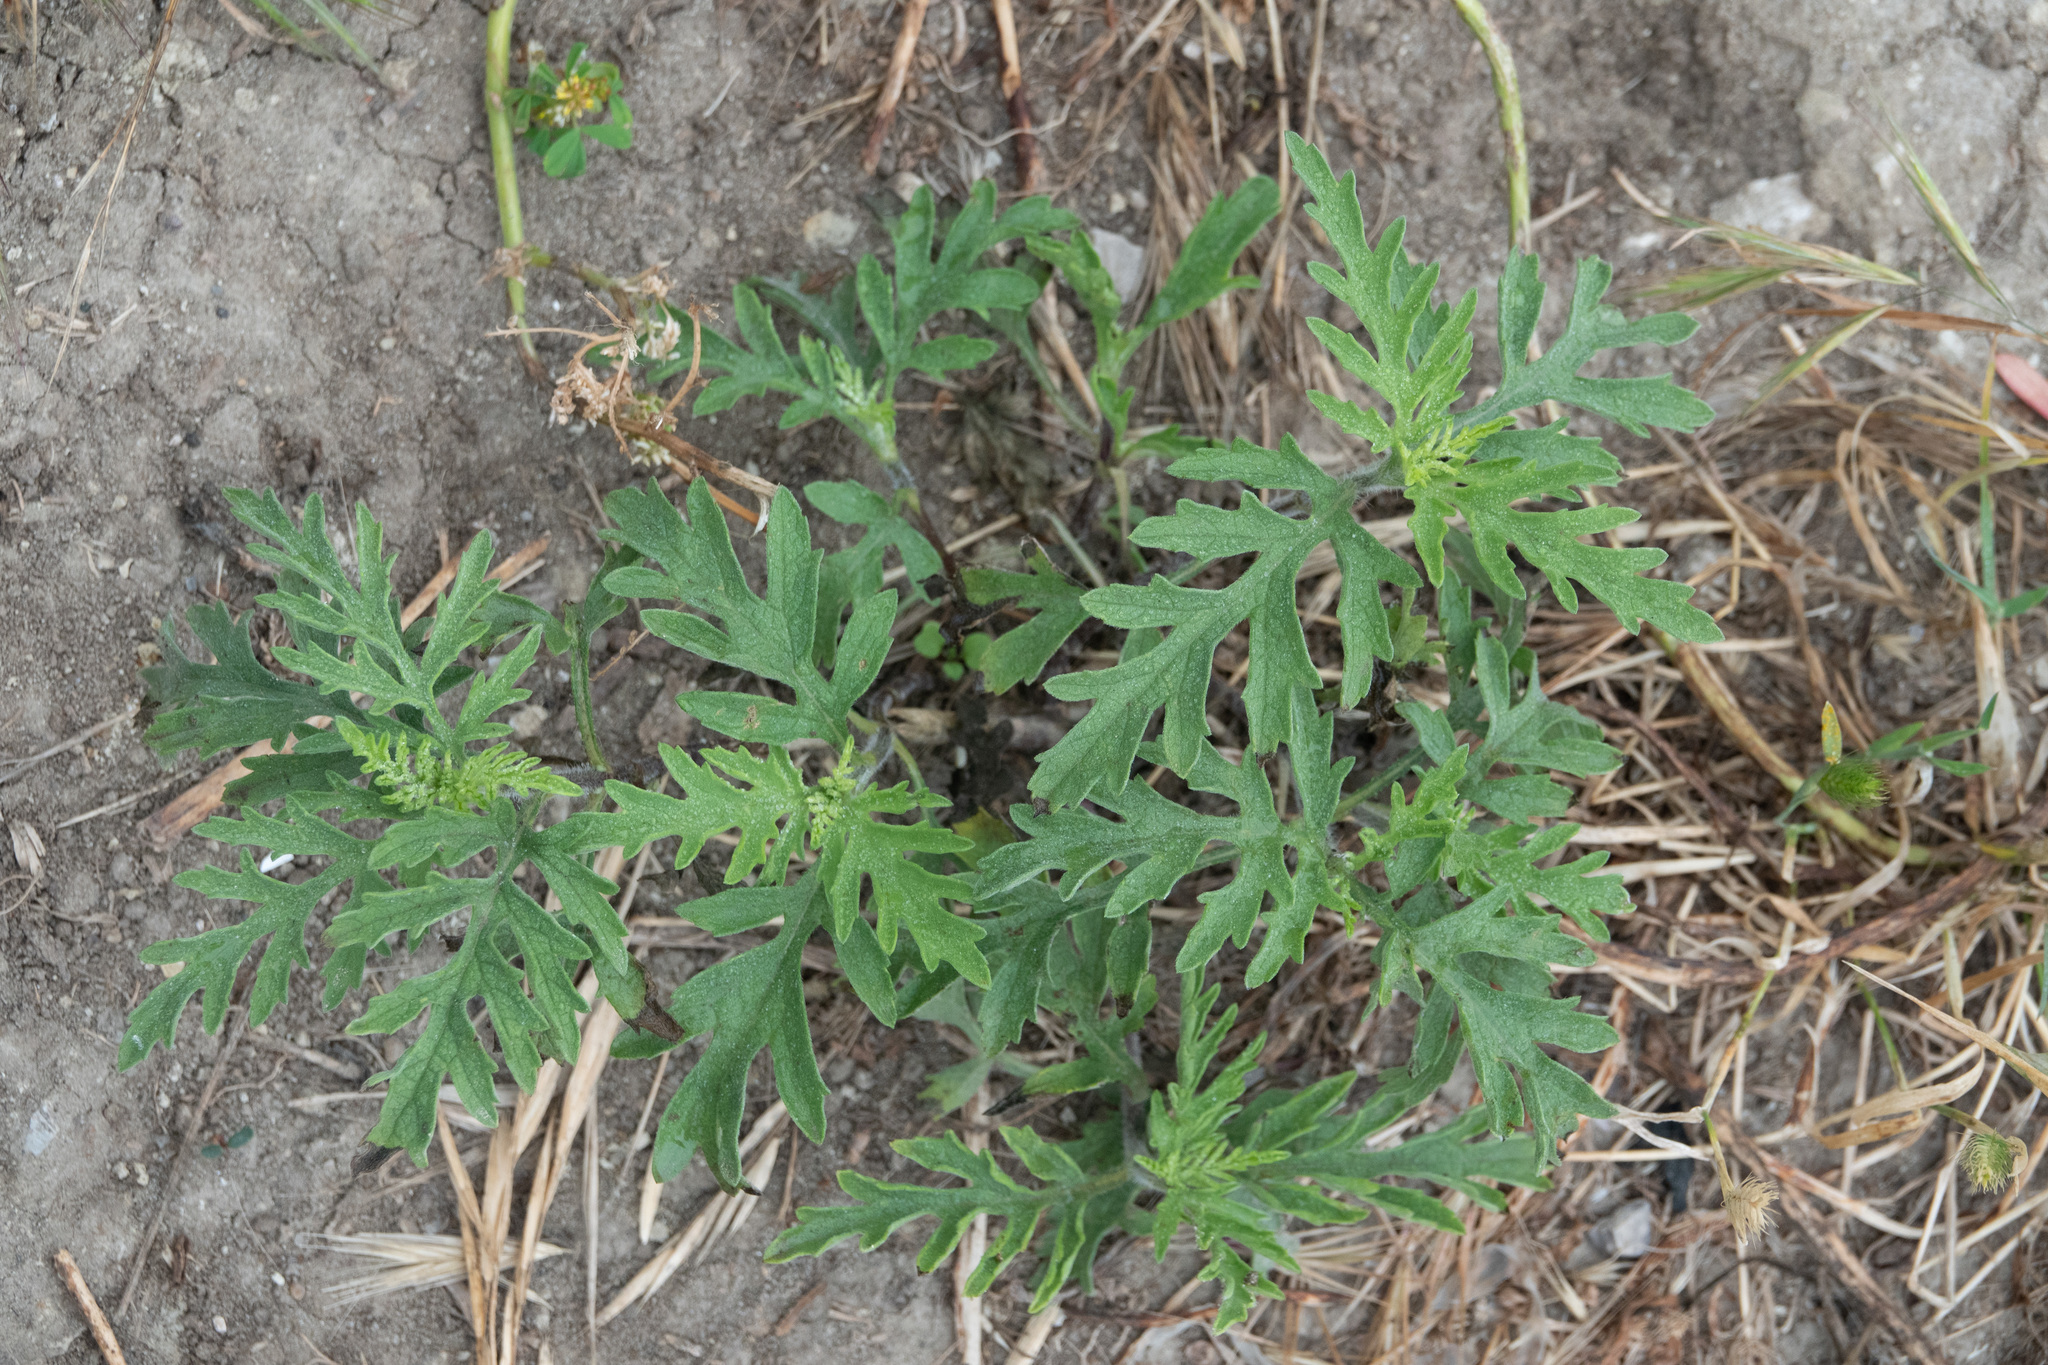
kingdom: Plantae
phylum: Tracheophyta
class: Magnoliopsida
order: Asterales
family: Asteraceae
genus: Ambrosia
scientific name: Ambrosia psilostachya
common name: Perennial ragweed
